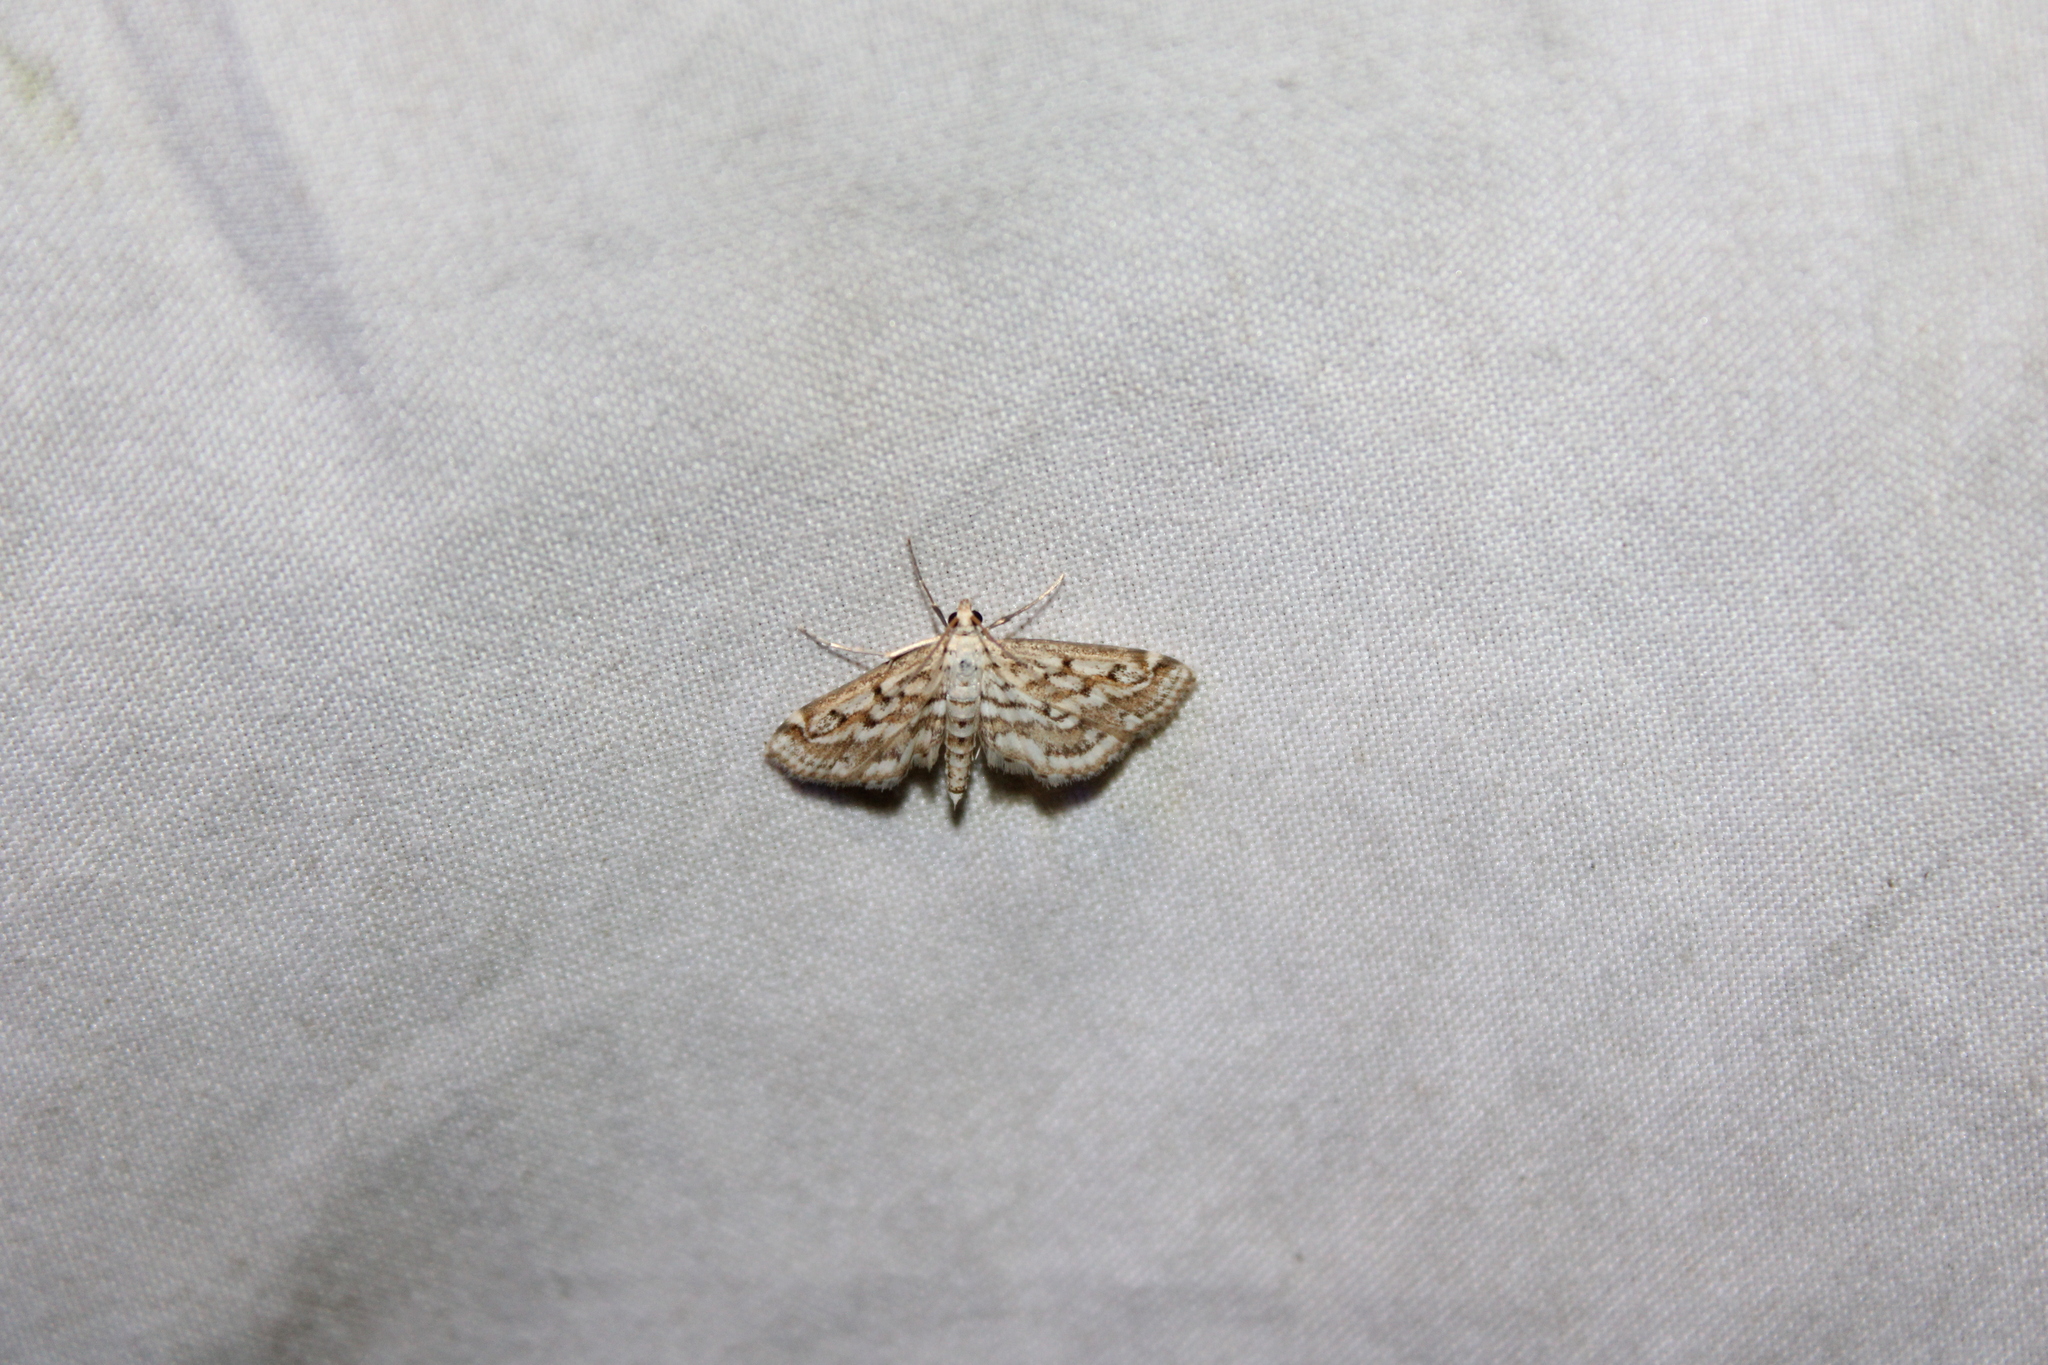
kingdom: Animalia
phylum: Arthropoda
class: Insecta
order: Lepidoptera
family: Crambidae
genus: Parapoynx
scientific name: Parapoynx allionealis
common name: Bladderwort casemaker
